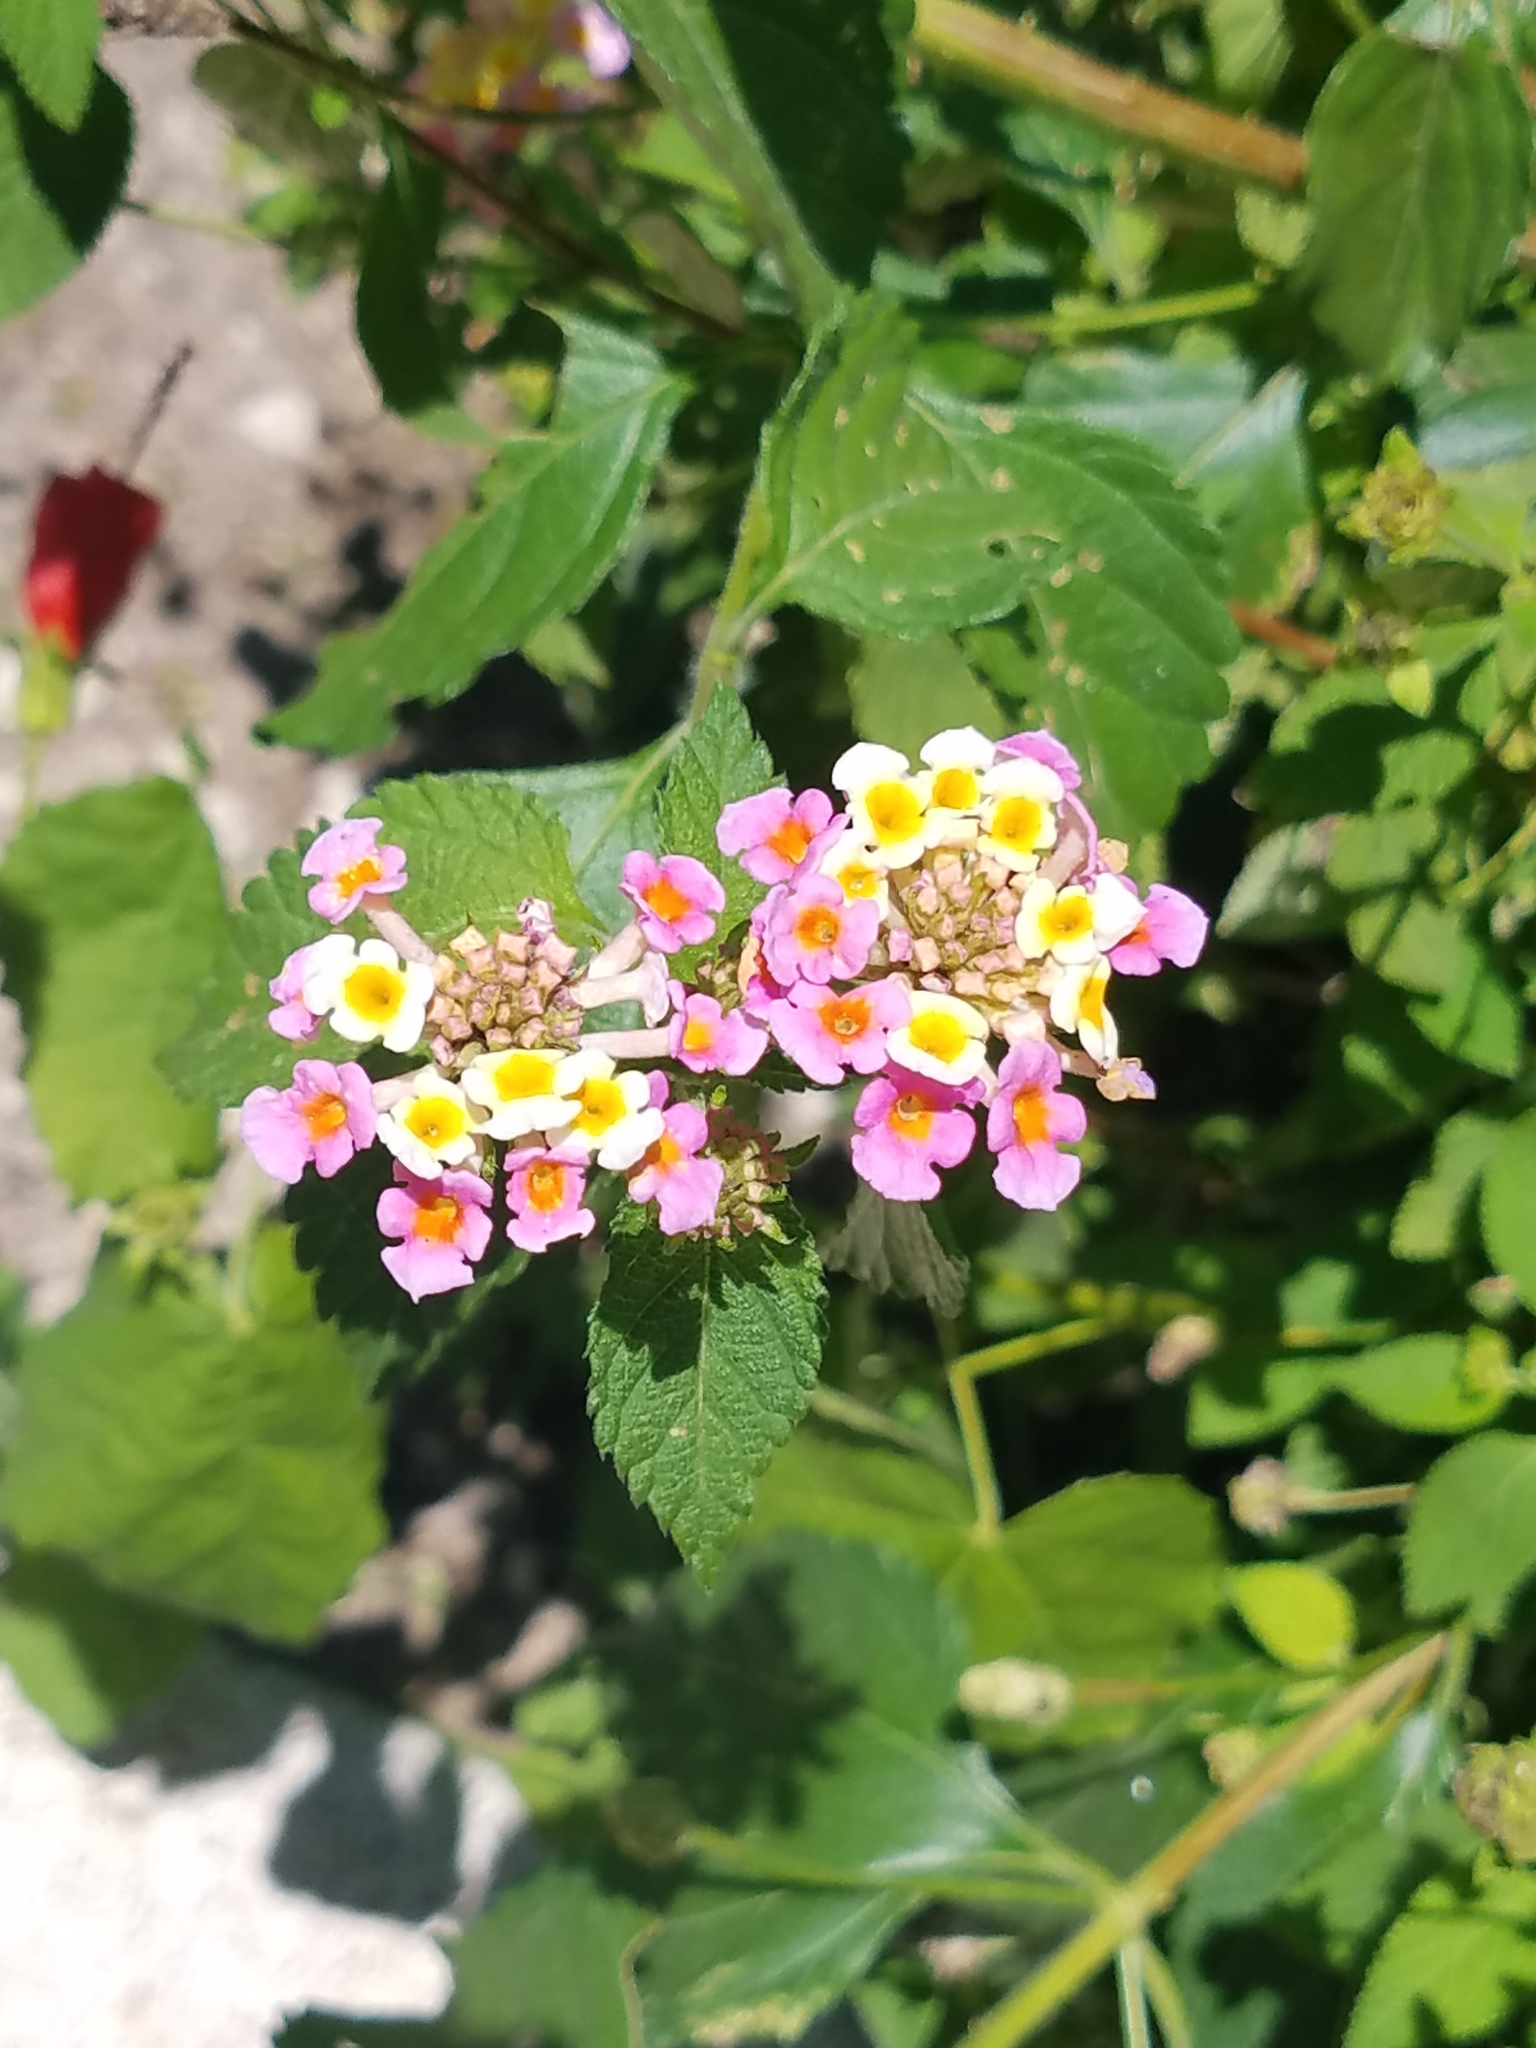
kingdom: Plantae
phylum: Tracheophyta
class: Magnoliopsida
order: Lamiales
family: Verbenaceae
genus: Lantana
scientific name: Lantana strigocamara
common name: Lantana
